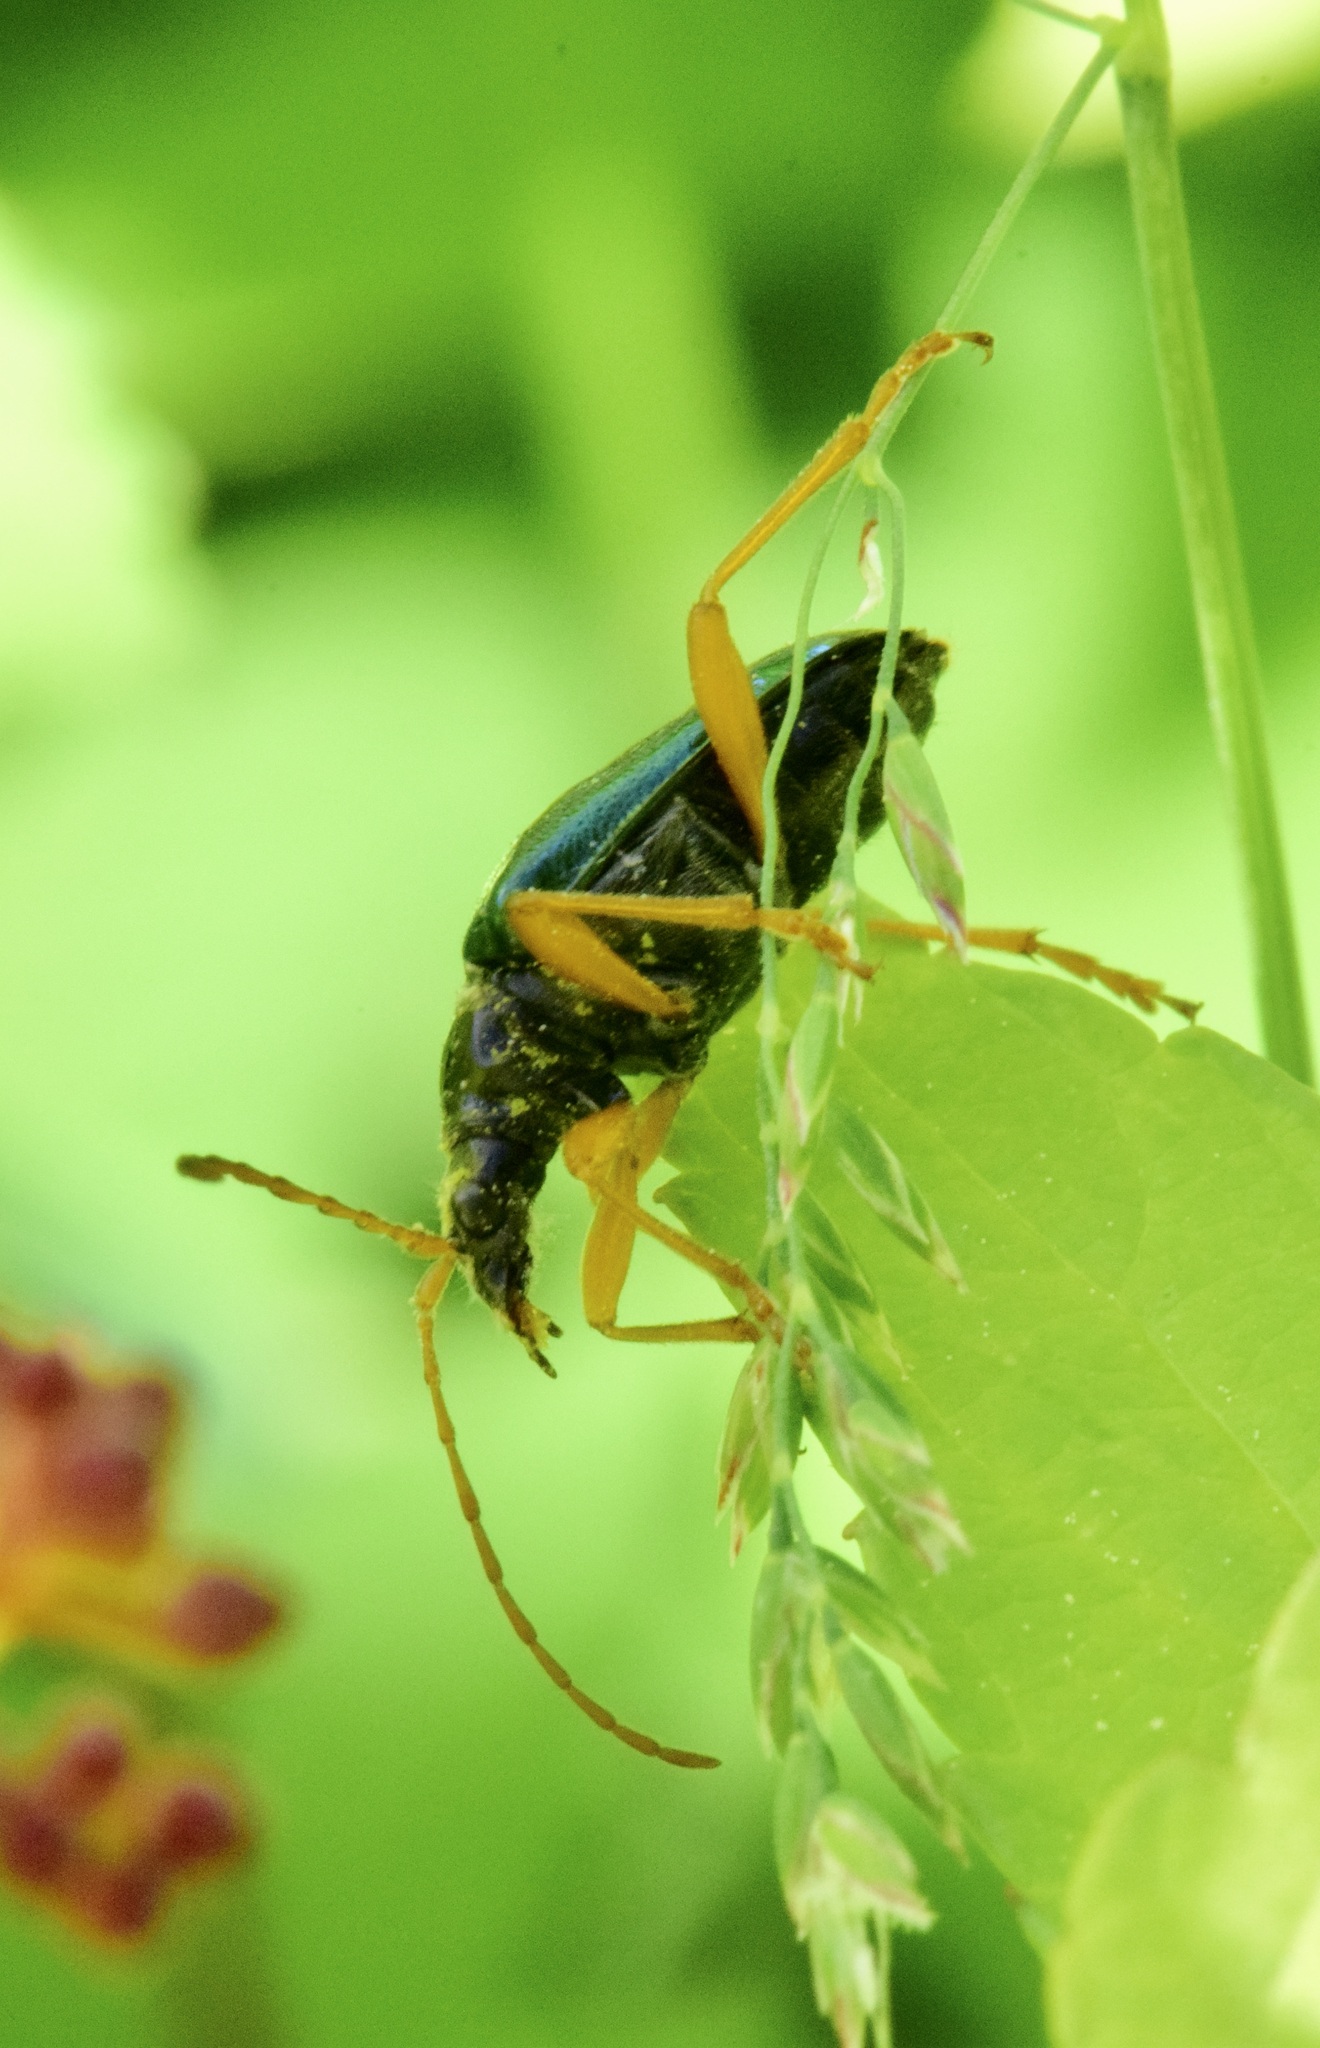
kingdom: Animalia
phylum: Arthropoda
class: Insecta
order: Coleoptera
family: Cerambycidae
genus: Gaurotes
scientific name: Gaurotes cyanipennis
